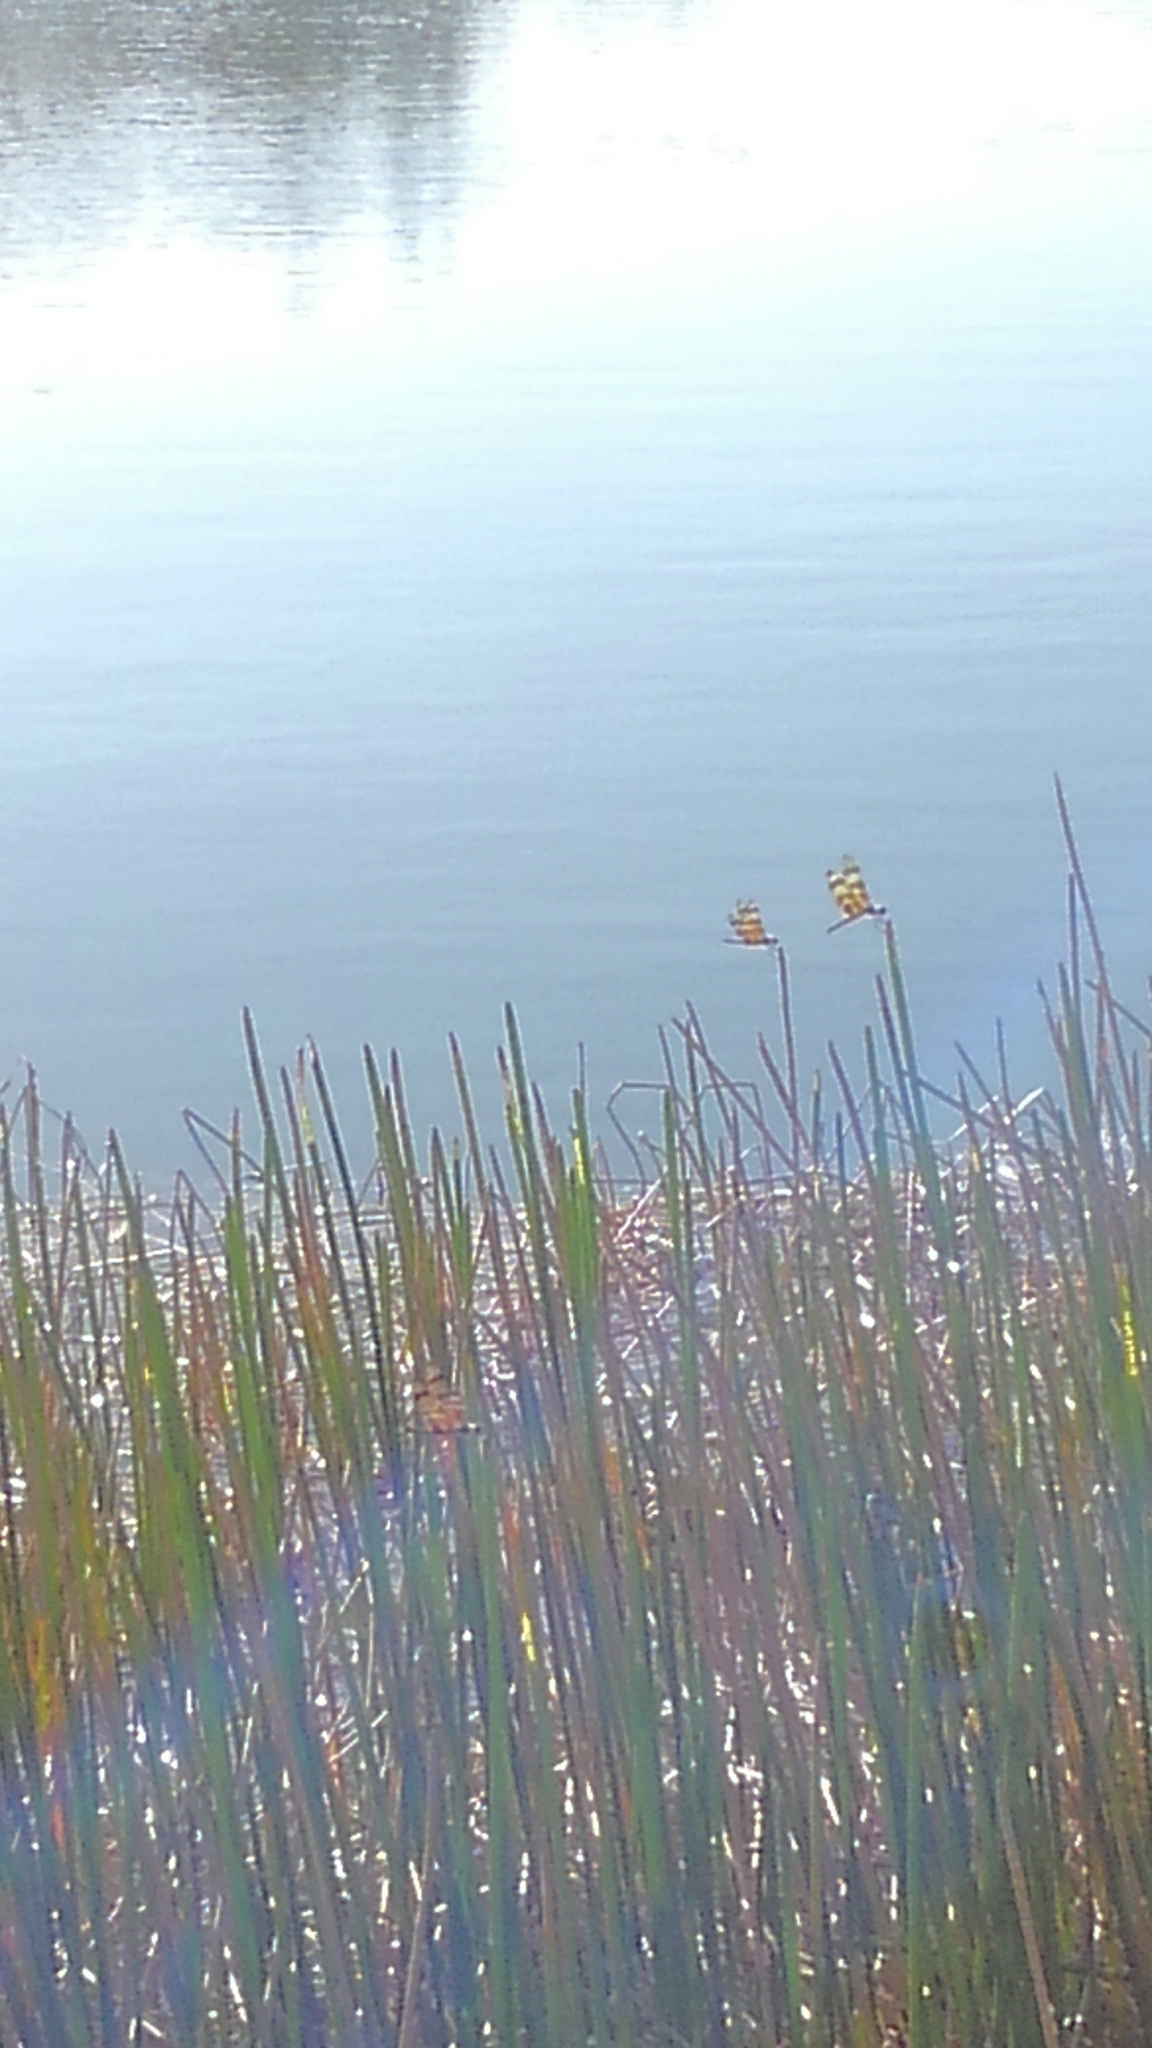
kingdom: Animalia
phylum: Arthropoda
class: Insecta
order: Odonata
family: Libellulidae
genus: Celithemis
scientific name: Celithemis eponina
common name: Halloween pennant
